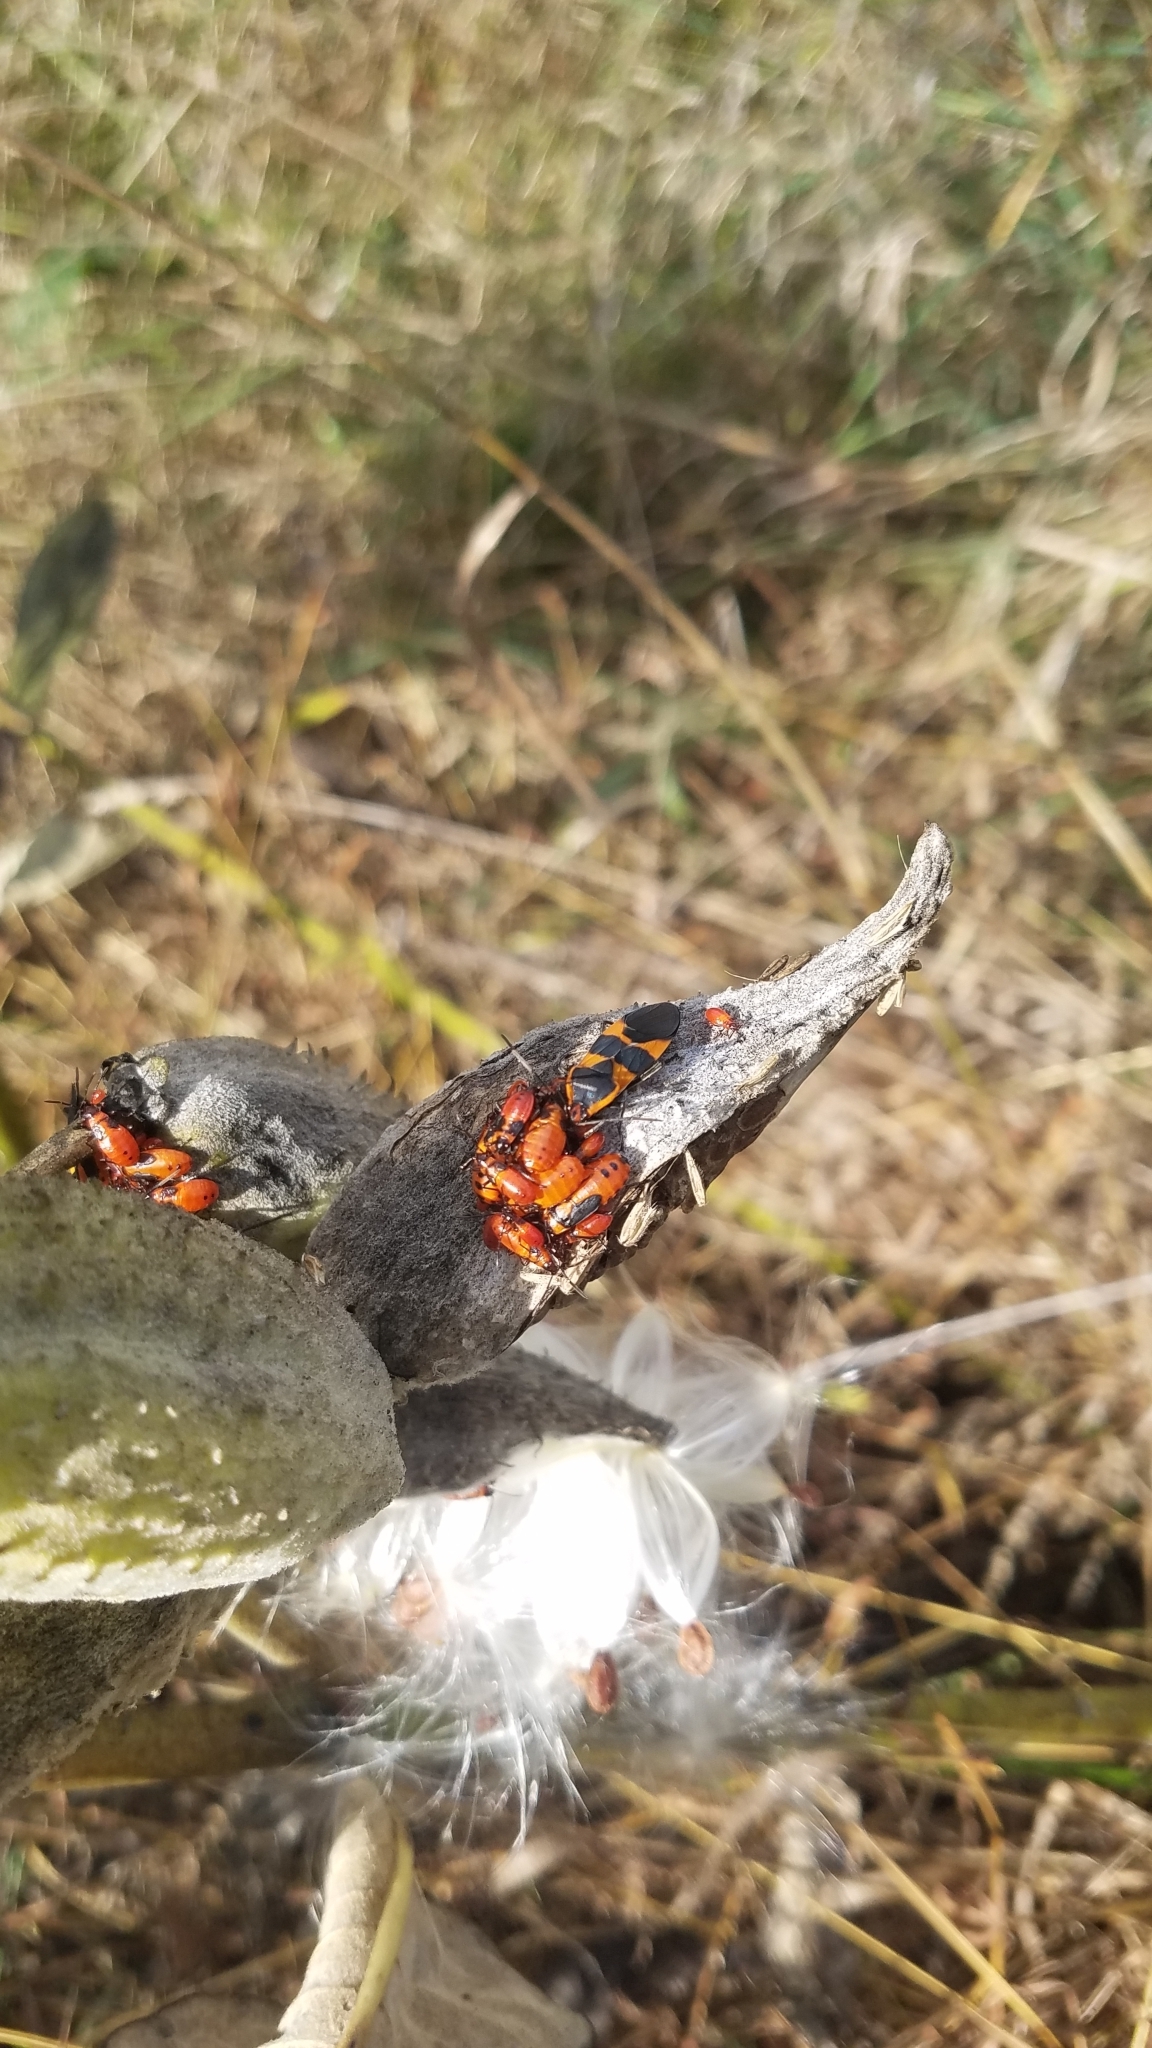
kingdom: Animalia
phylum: Arthropoda
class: Insecta
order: Hemiptera
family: Lygaeidae
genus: Oncopeltus
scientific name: Oncopeltus fasciatus
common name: Large milkweed bug
